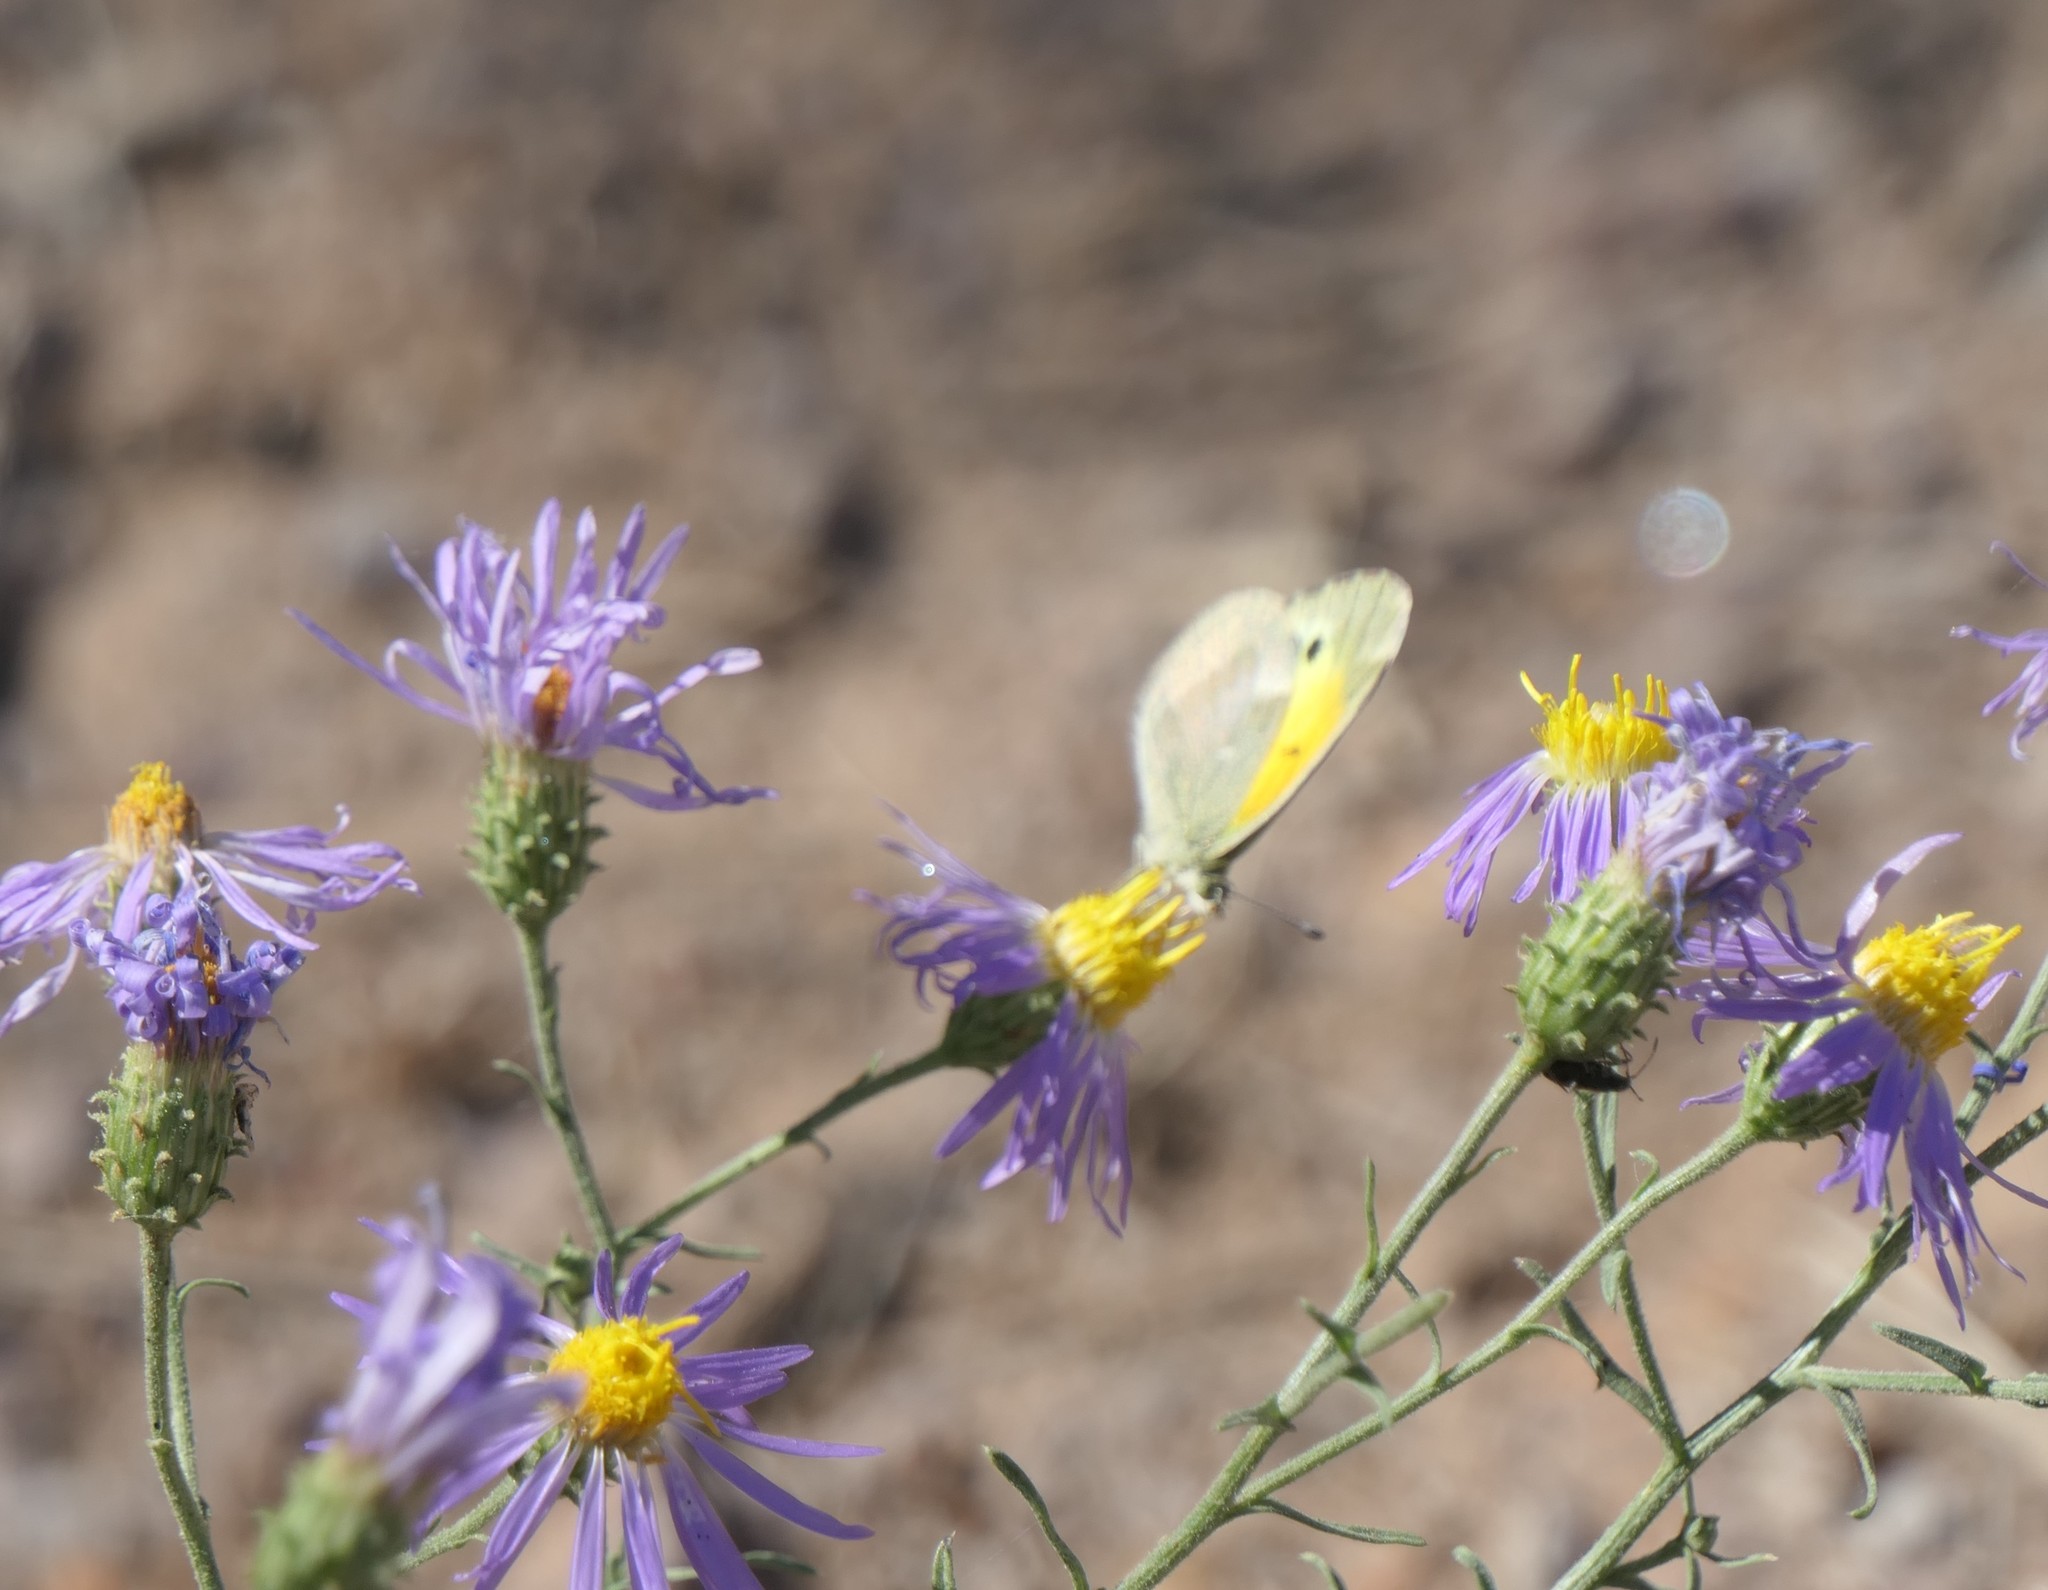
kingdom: Animalia
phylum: Arthropoda
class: Insecta
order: Lepidoptera
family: Pieridae
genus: Nathalis
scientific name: Nathalis iole
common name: Dainty sulphur
